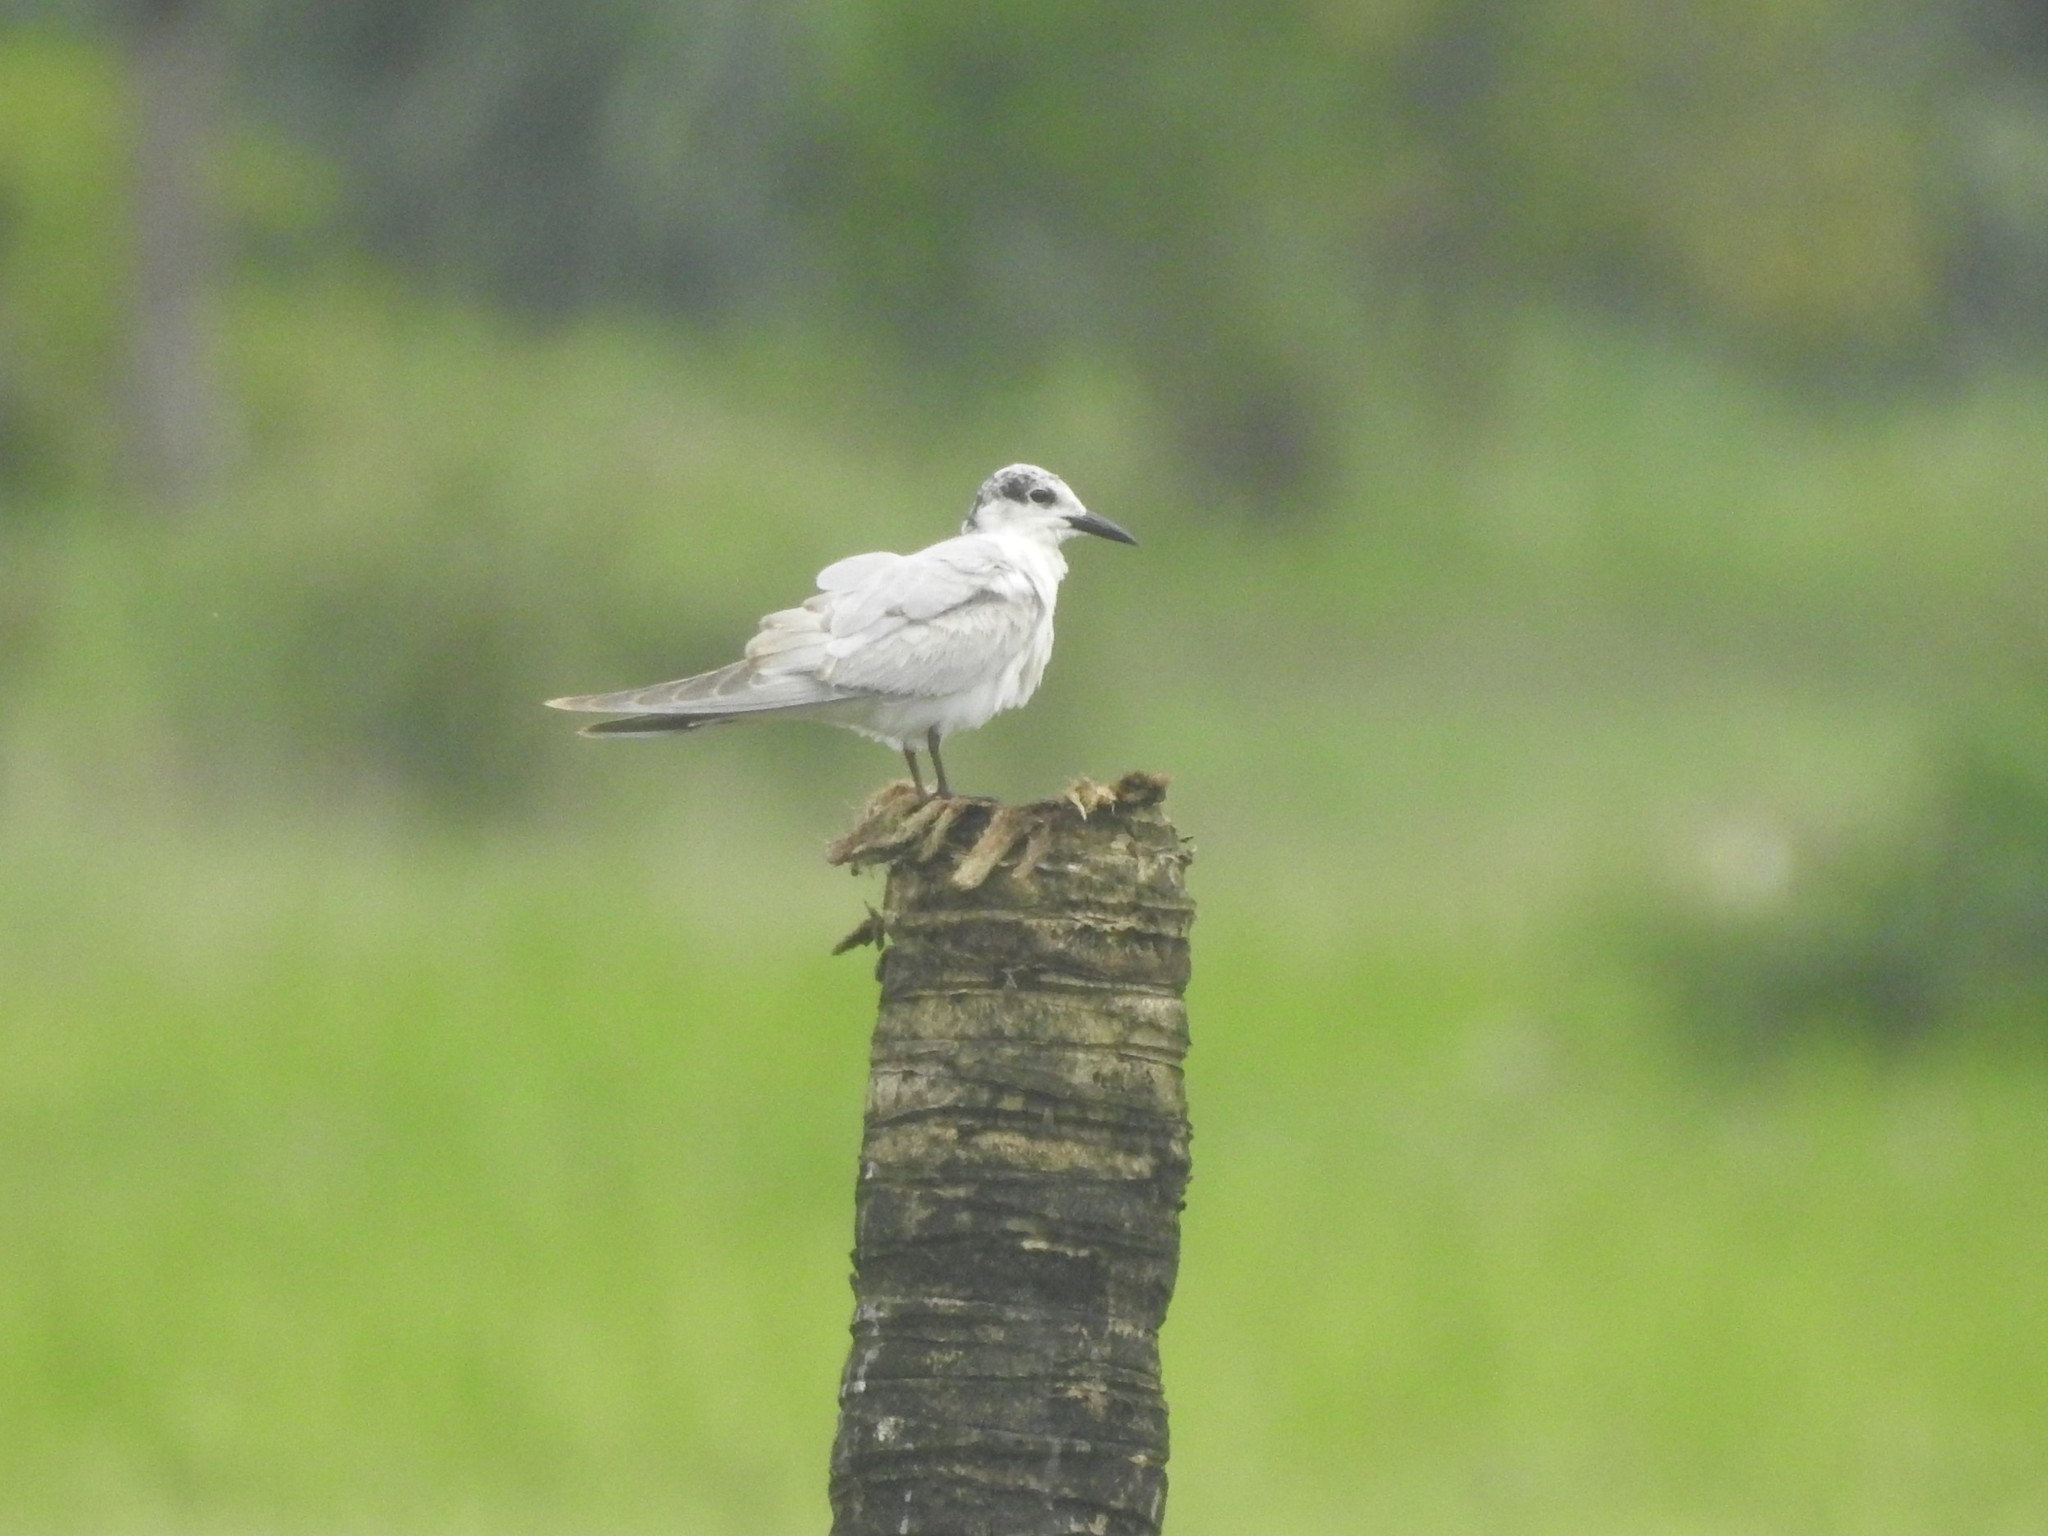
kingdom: Animalia
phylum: Chordata
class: Aves
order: Charadriiformes
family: Laridae
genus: Chlidonias
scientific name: Chlidonias hybrida
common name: Whiskered tern
